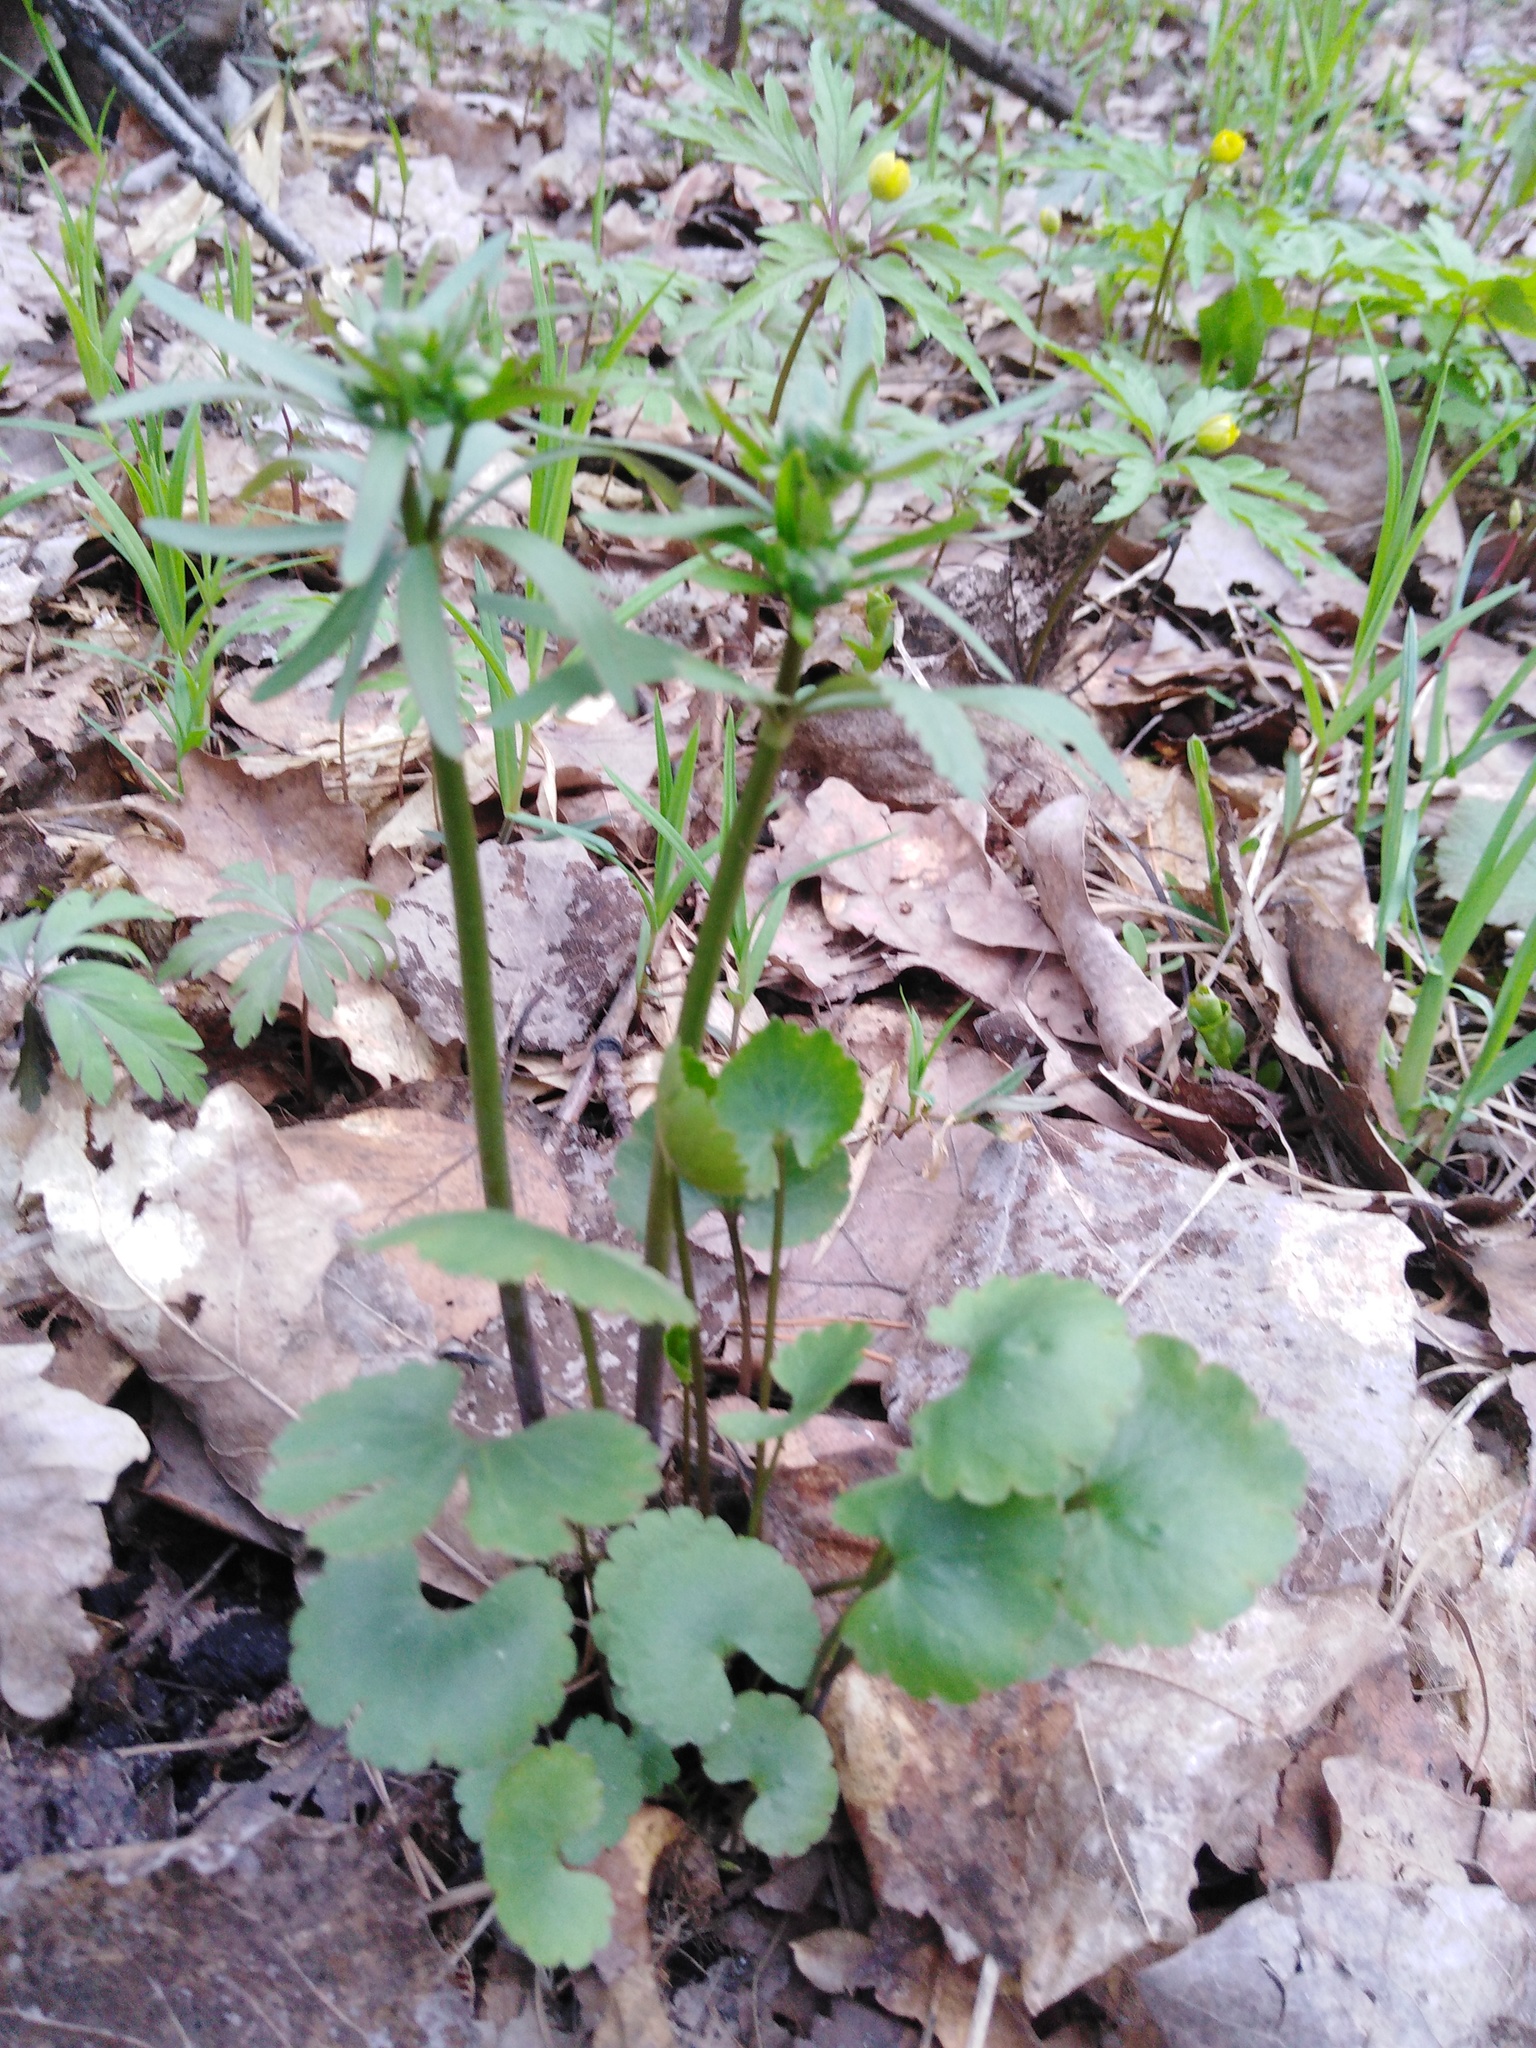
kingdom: Plantae
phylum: Tracheophyta
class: Magnoliopsida
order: Ranunculales
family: Ranunculaceae
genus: Ranunculus
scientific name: Ranunculus auricomus
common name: Goldilocks buttercup
